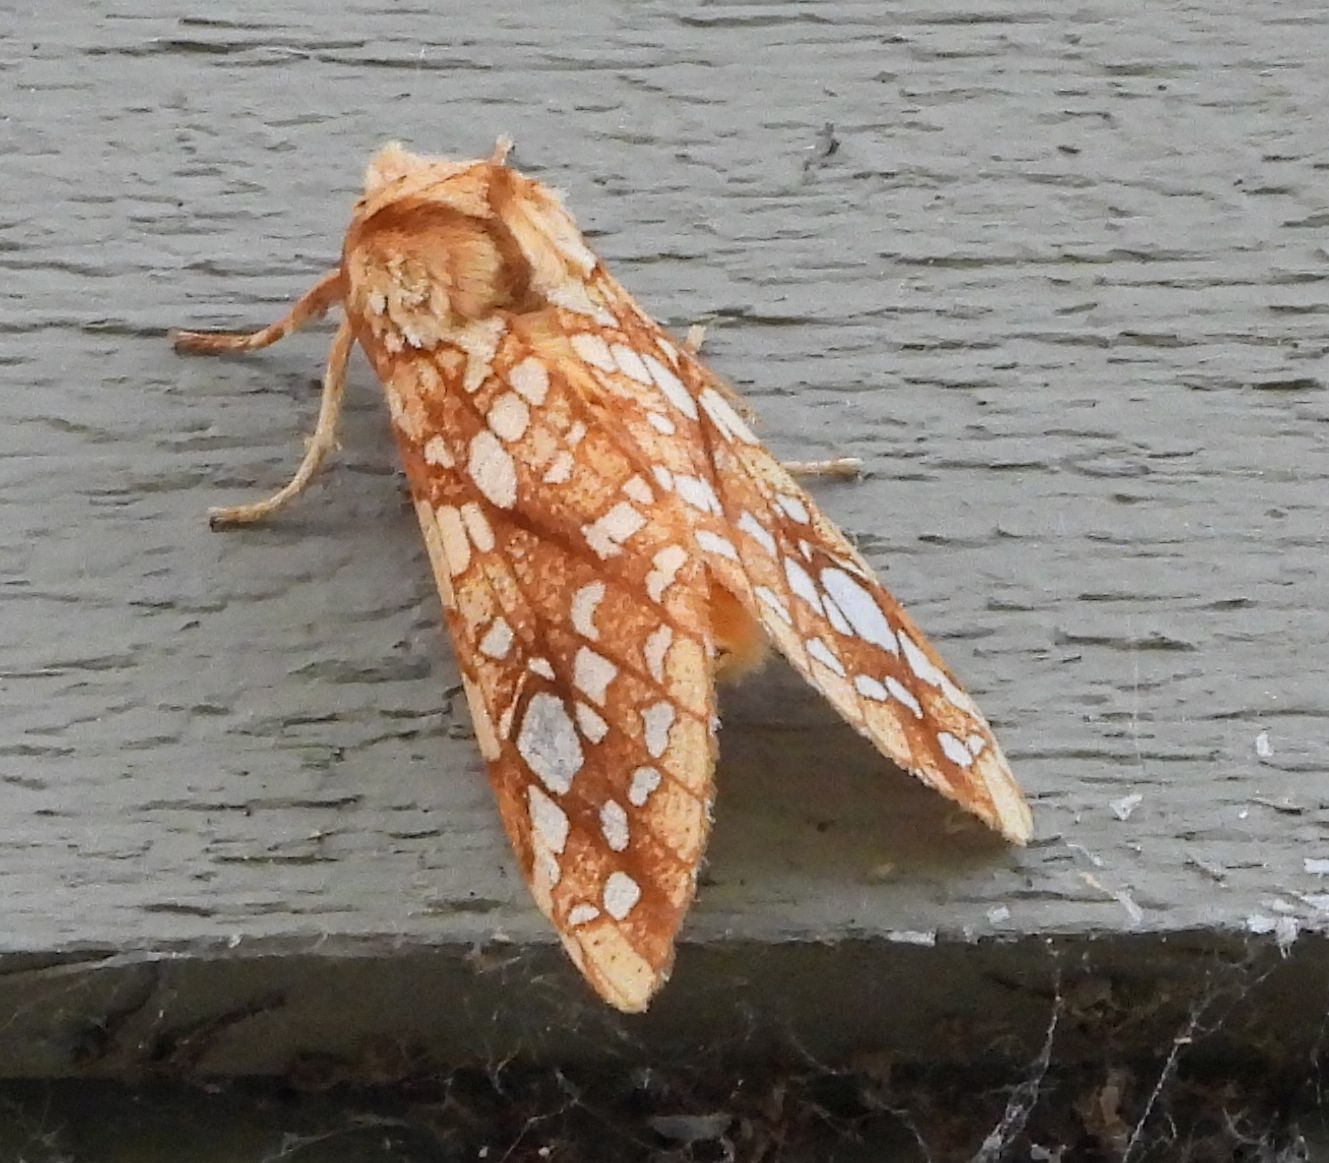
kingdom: Animalia
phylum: Arthropoda
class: Insecta
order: Lepidoptera
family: Erebidae
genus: Lophocampa
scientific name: Lophocampa caryae
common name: Hickory tussock moth
